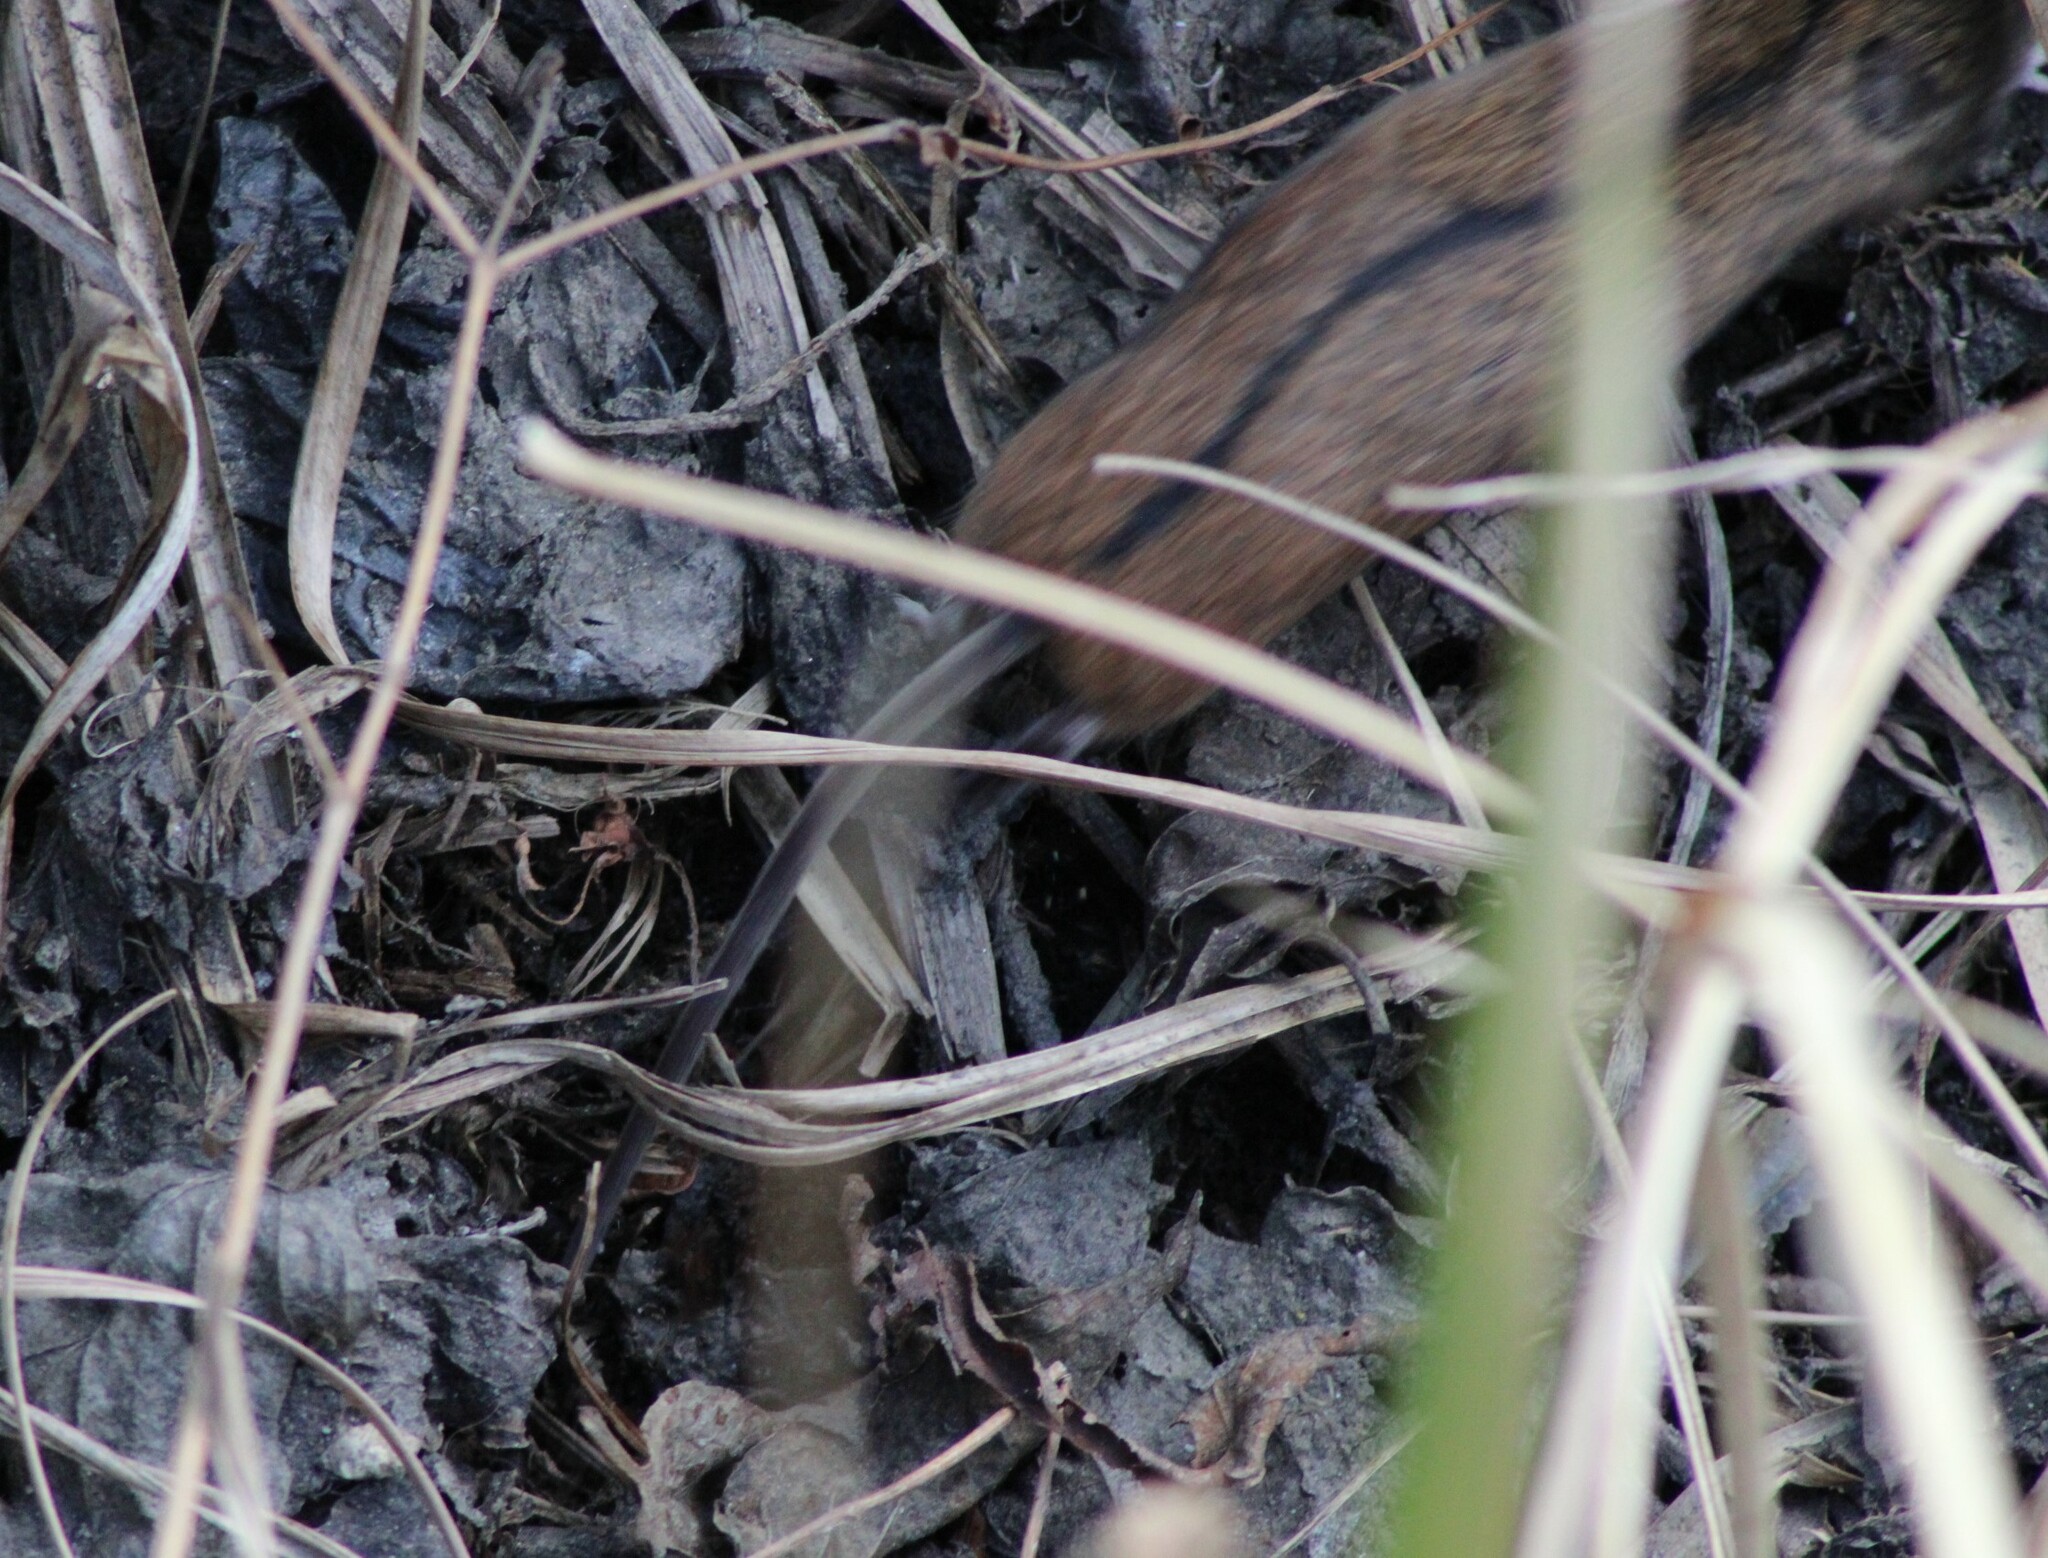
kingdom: Animalia
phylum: Chordata
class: Mammalia
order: Rodentia
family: Muridae
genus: Apodemus
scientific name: Apodemus agrarius
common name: Striped field mouse
